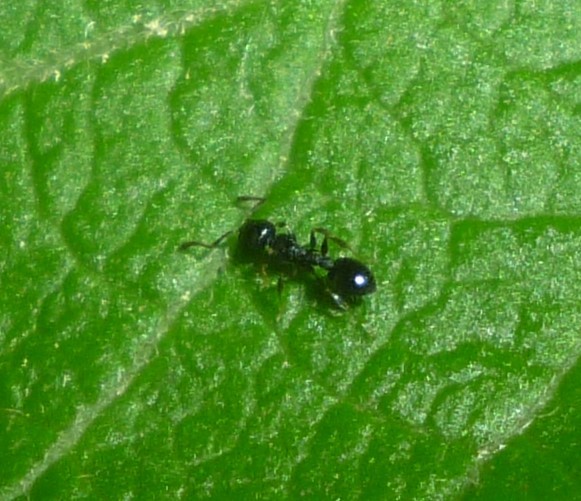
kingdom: Animalia
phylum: Arthropoda
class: Insecta
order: Hymenoptera
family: Formicidae
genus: Temnothorax
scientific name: Temnothorax longispinosus
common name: Long-spined acorn ant
